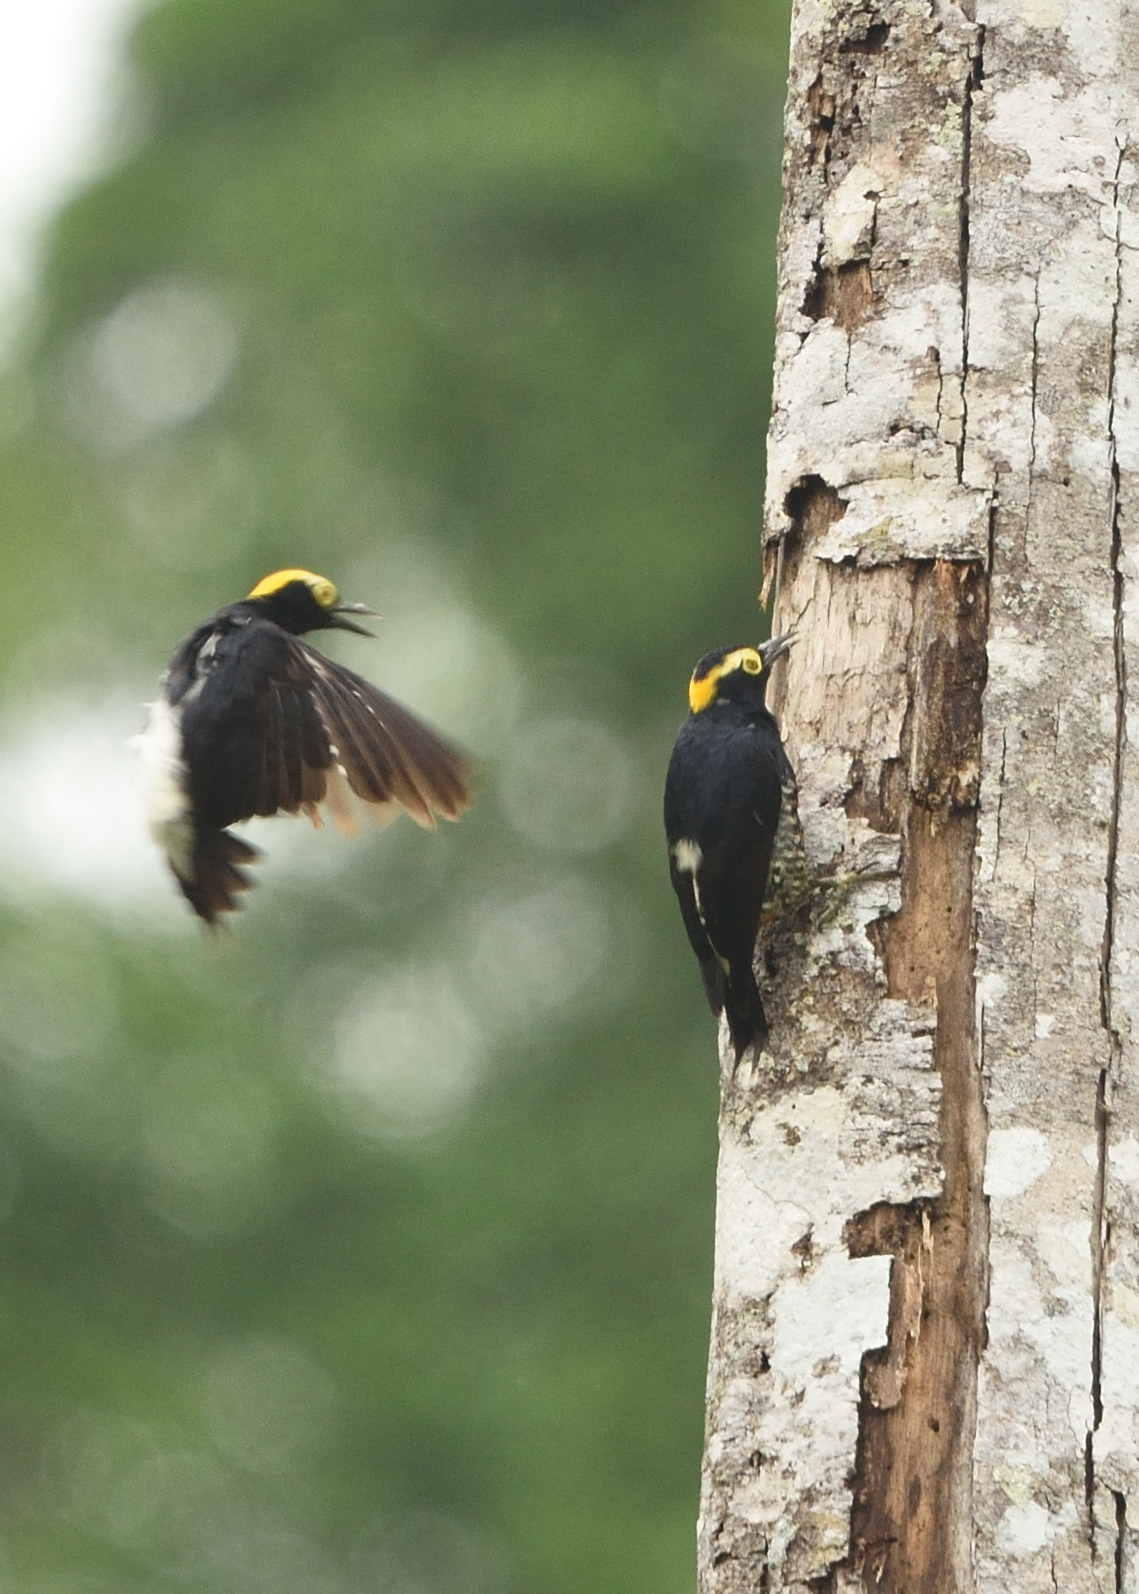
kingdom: Animalia
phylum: Chordata
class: Aves
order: Piciformes
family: Picidae
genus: Melanerpes
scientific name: Melanerpes cruentatus
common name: Yellow-tufted woodpecker
